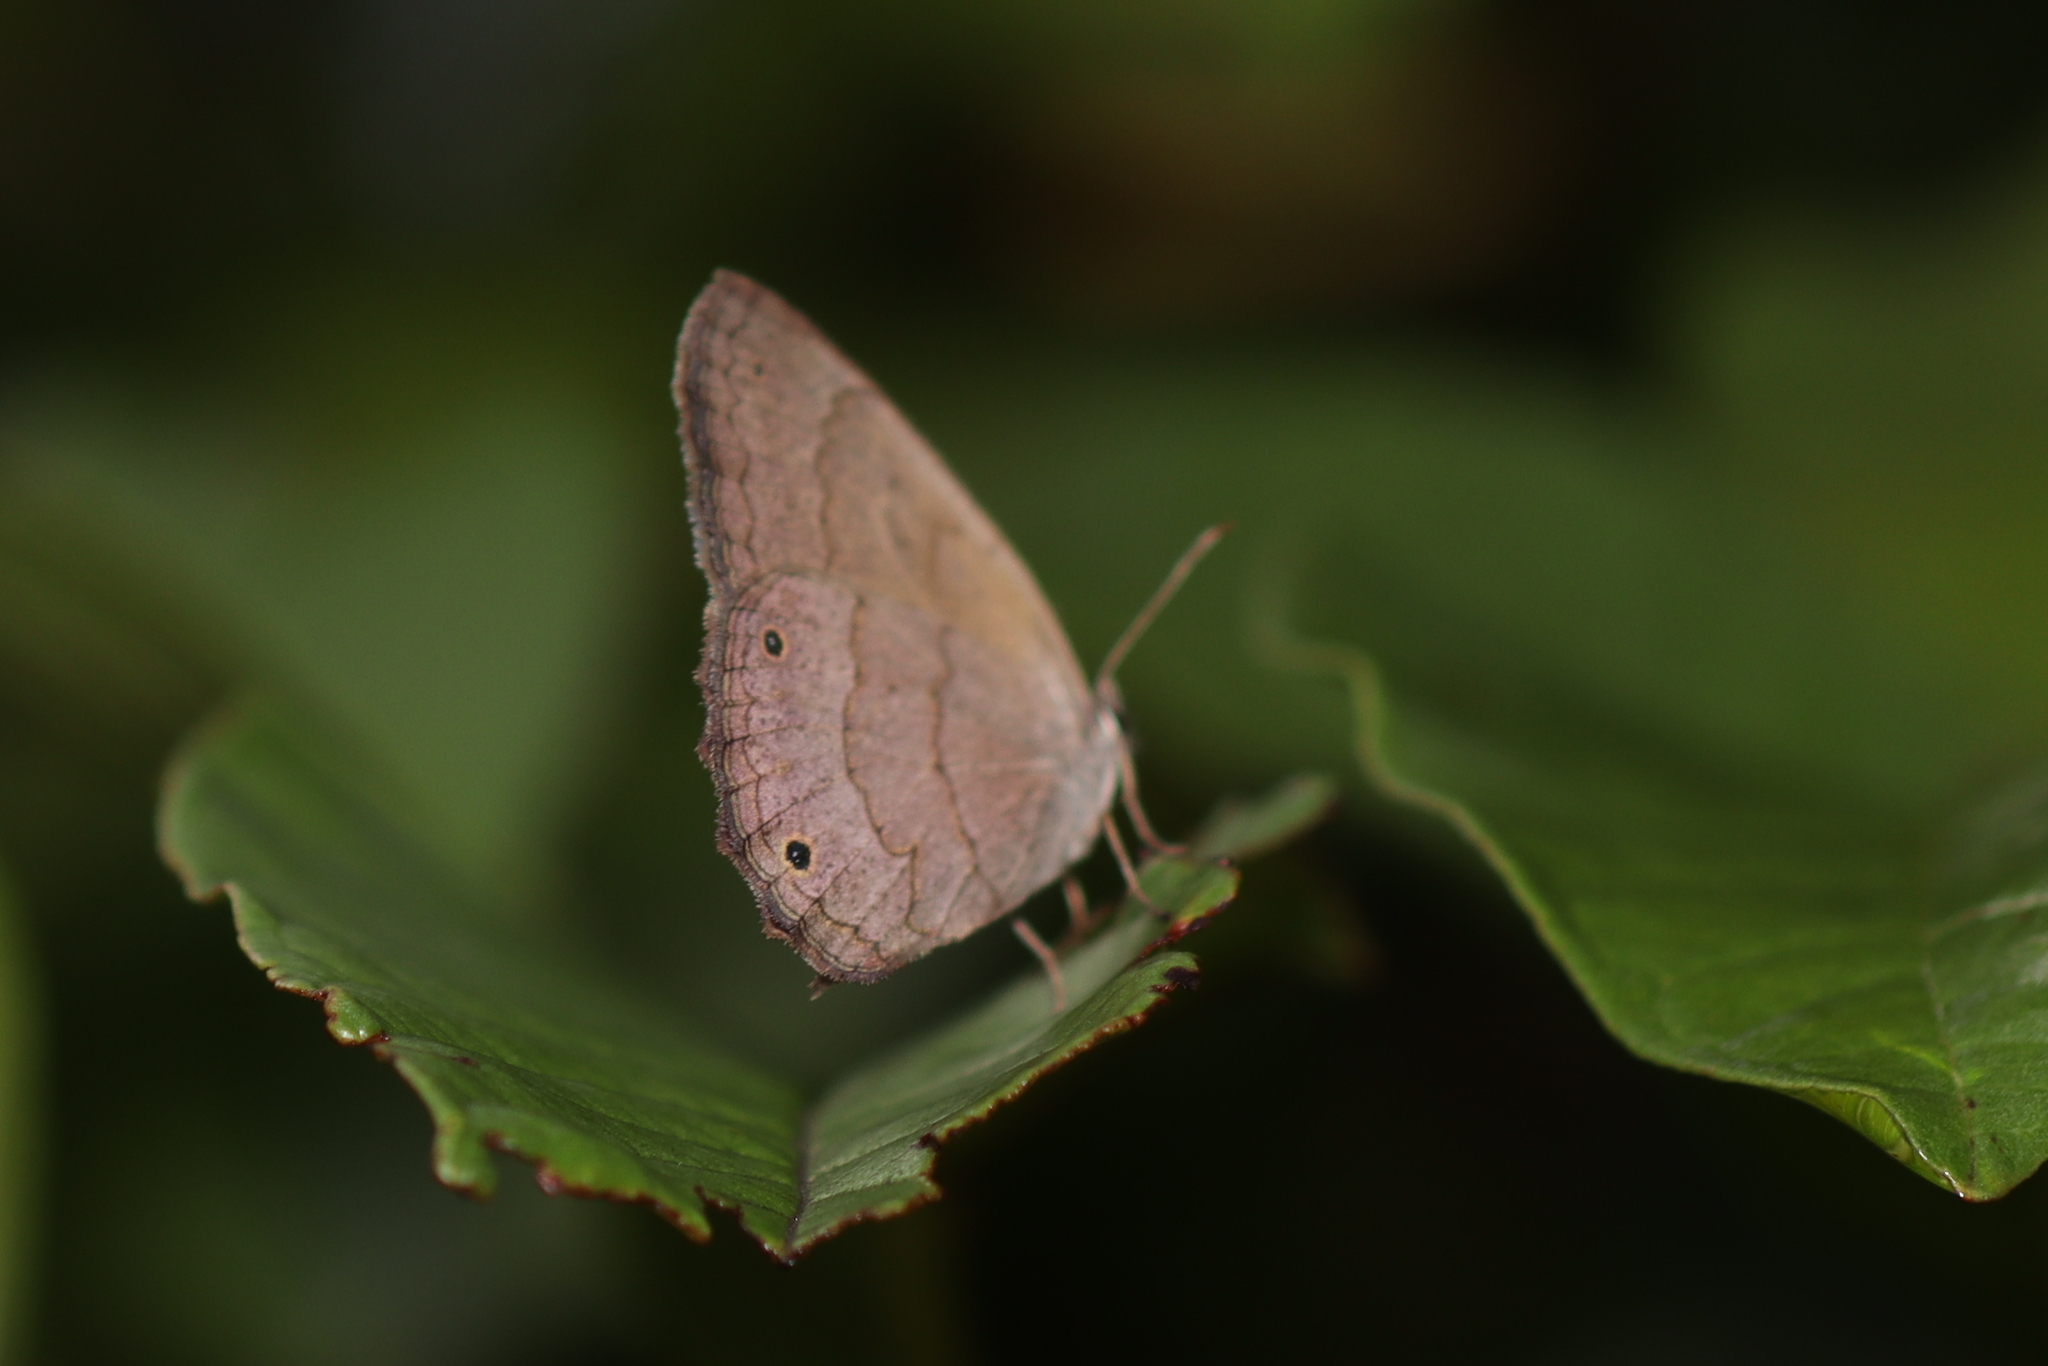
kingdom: Animalia
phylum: Arthropoda
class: Insecta
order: Lepidoptera
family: Nymphalidae
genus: Euptychia
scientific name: Euptychia Cissia eous
